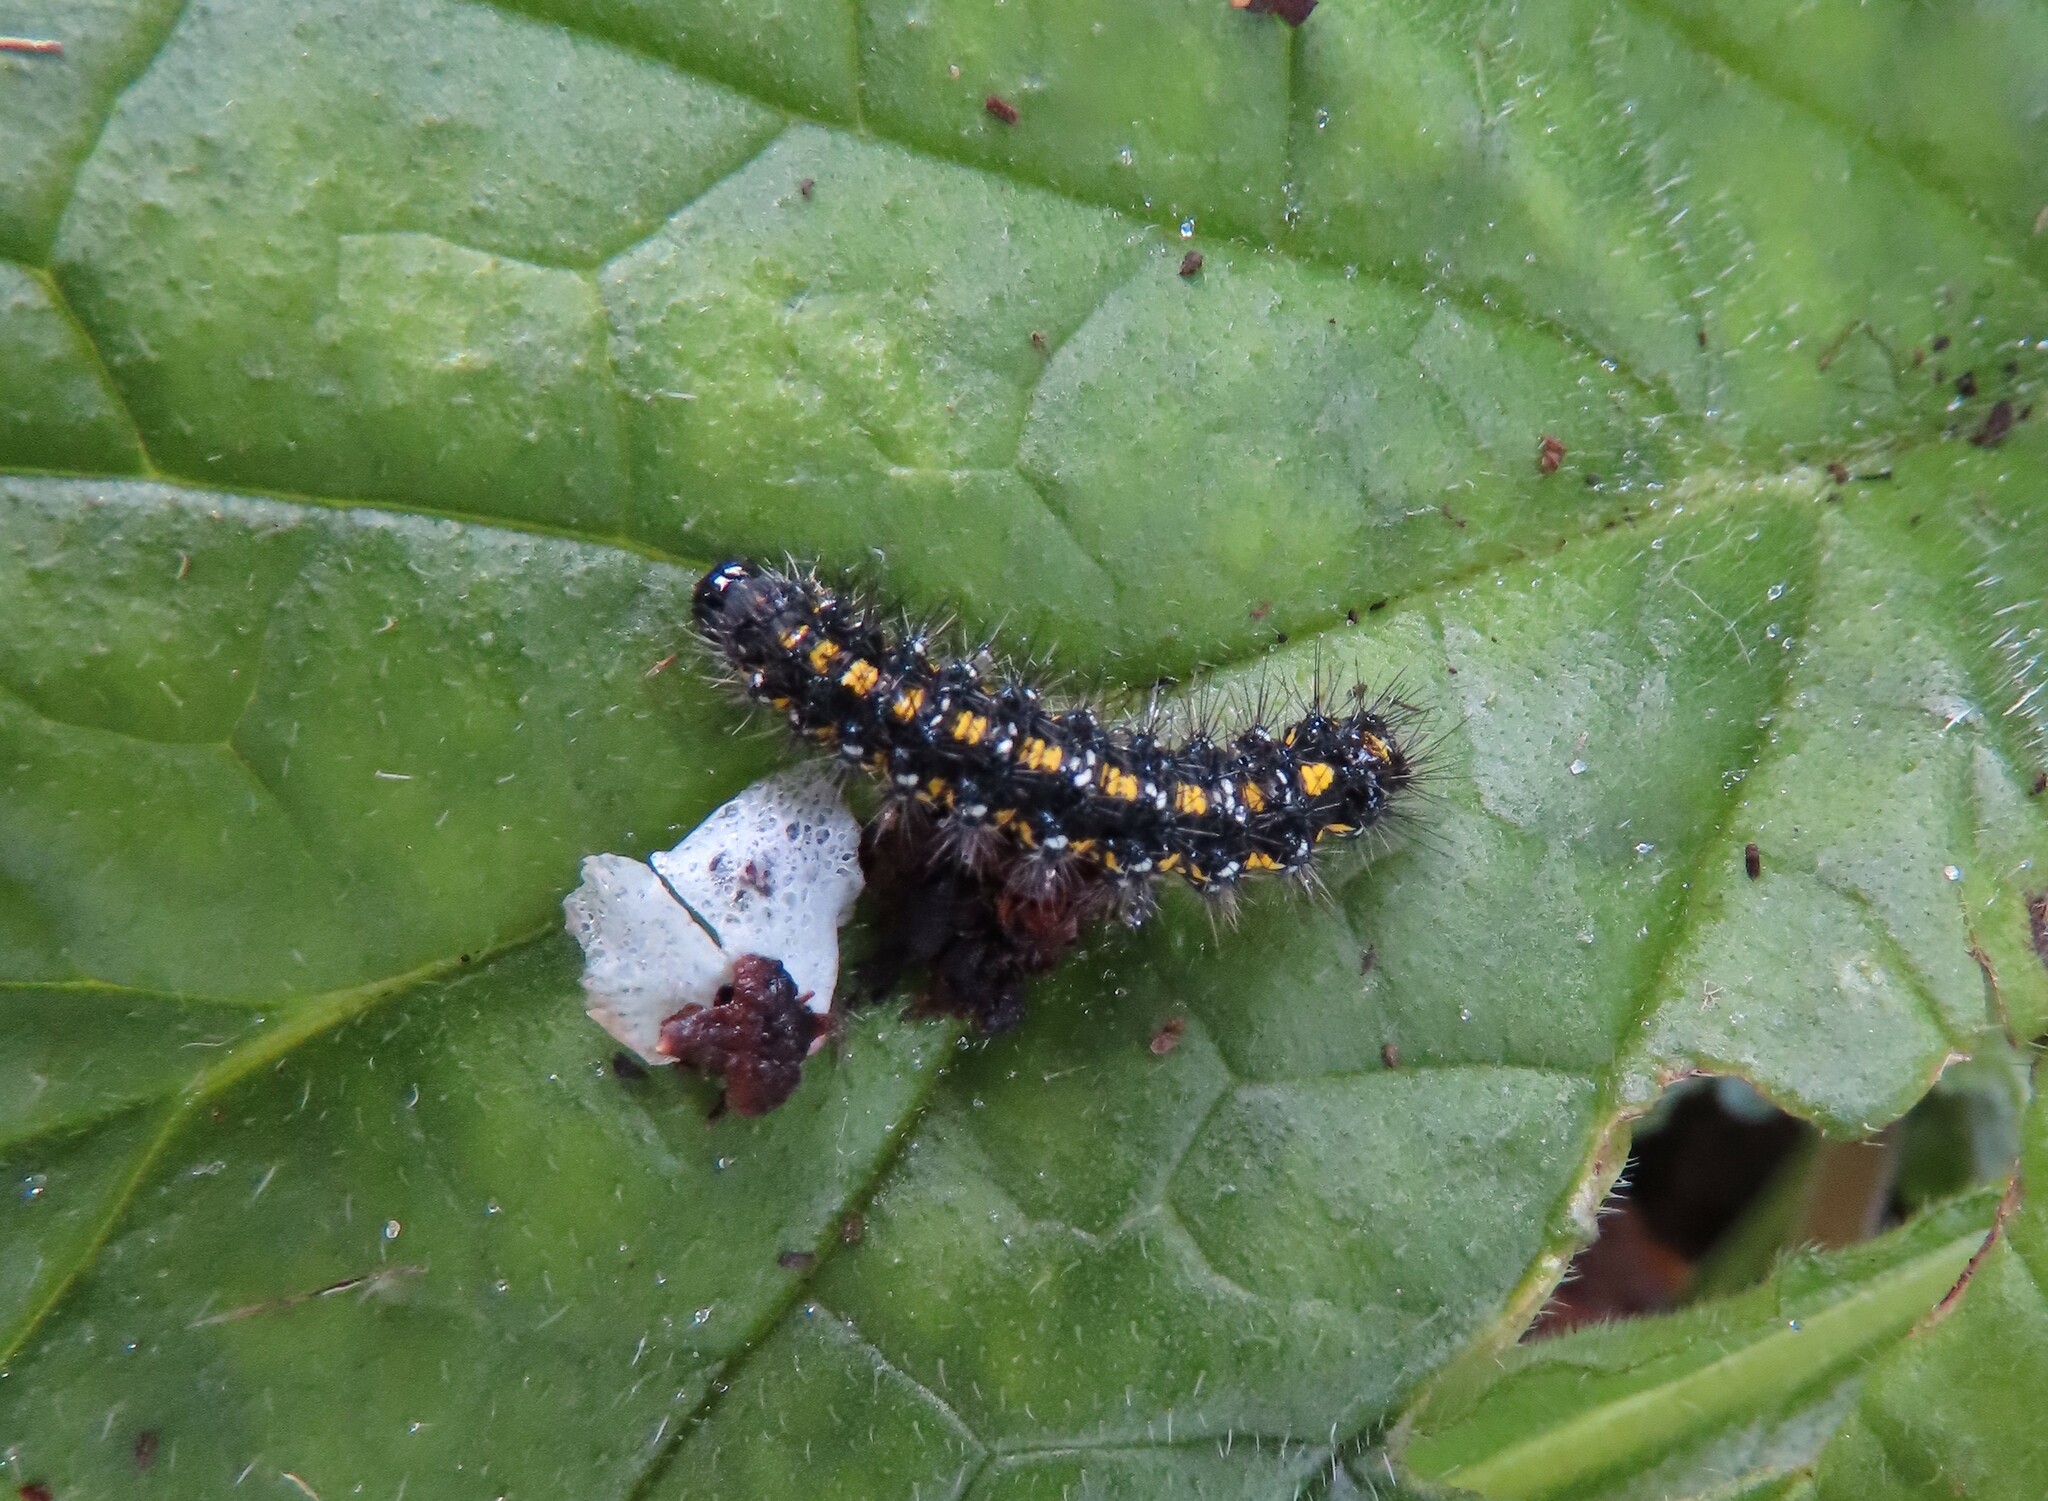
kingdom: Animalia
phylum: Arthropoda
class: Insecta
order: Lepidoptera
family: Erebidae
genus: Callimorpha
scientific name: Callimorpha dominula
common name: Scarlet tiger
